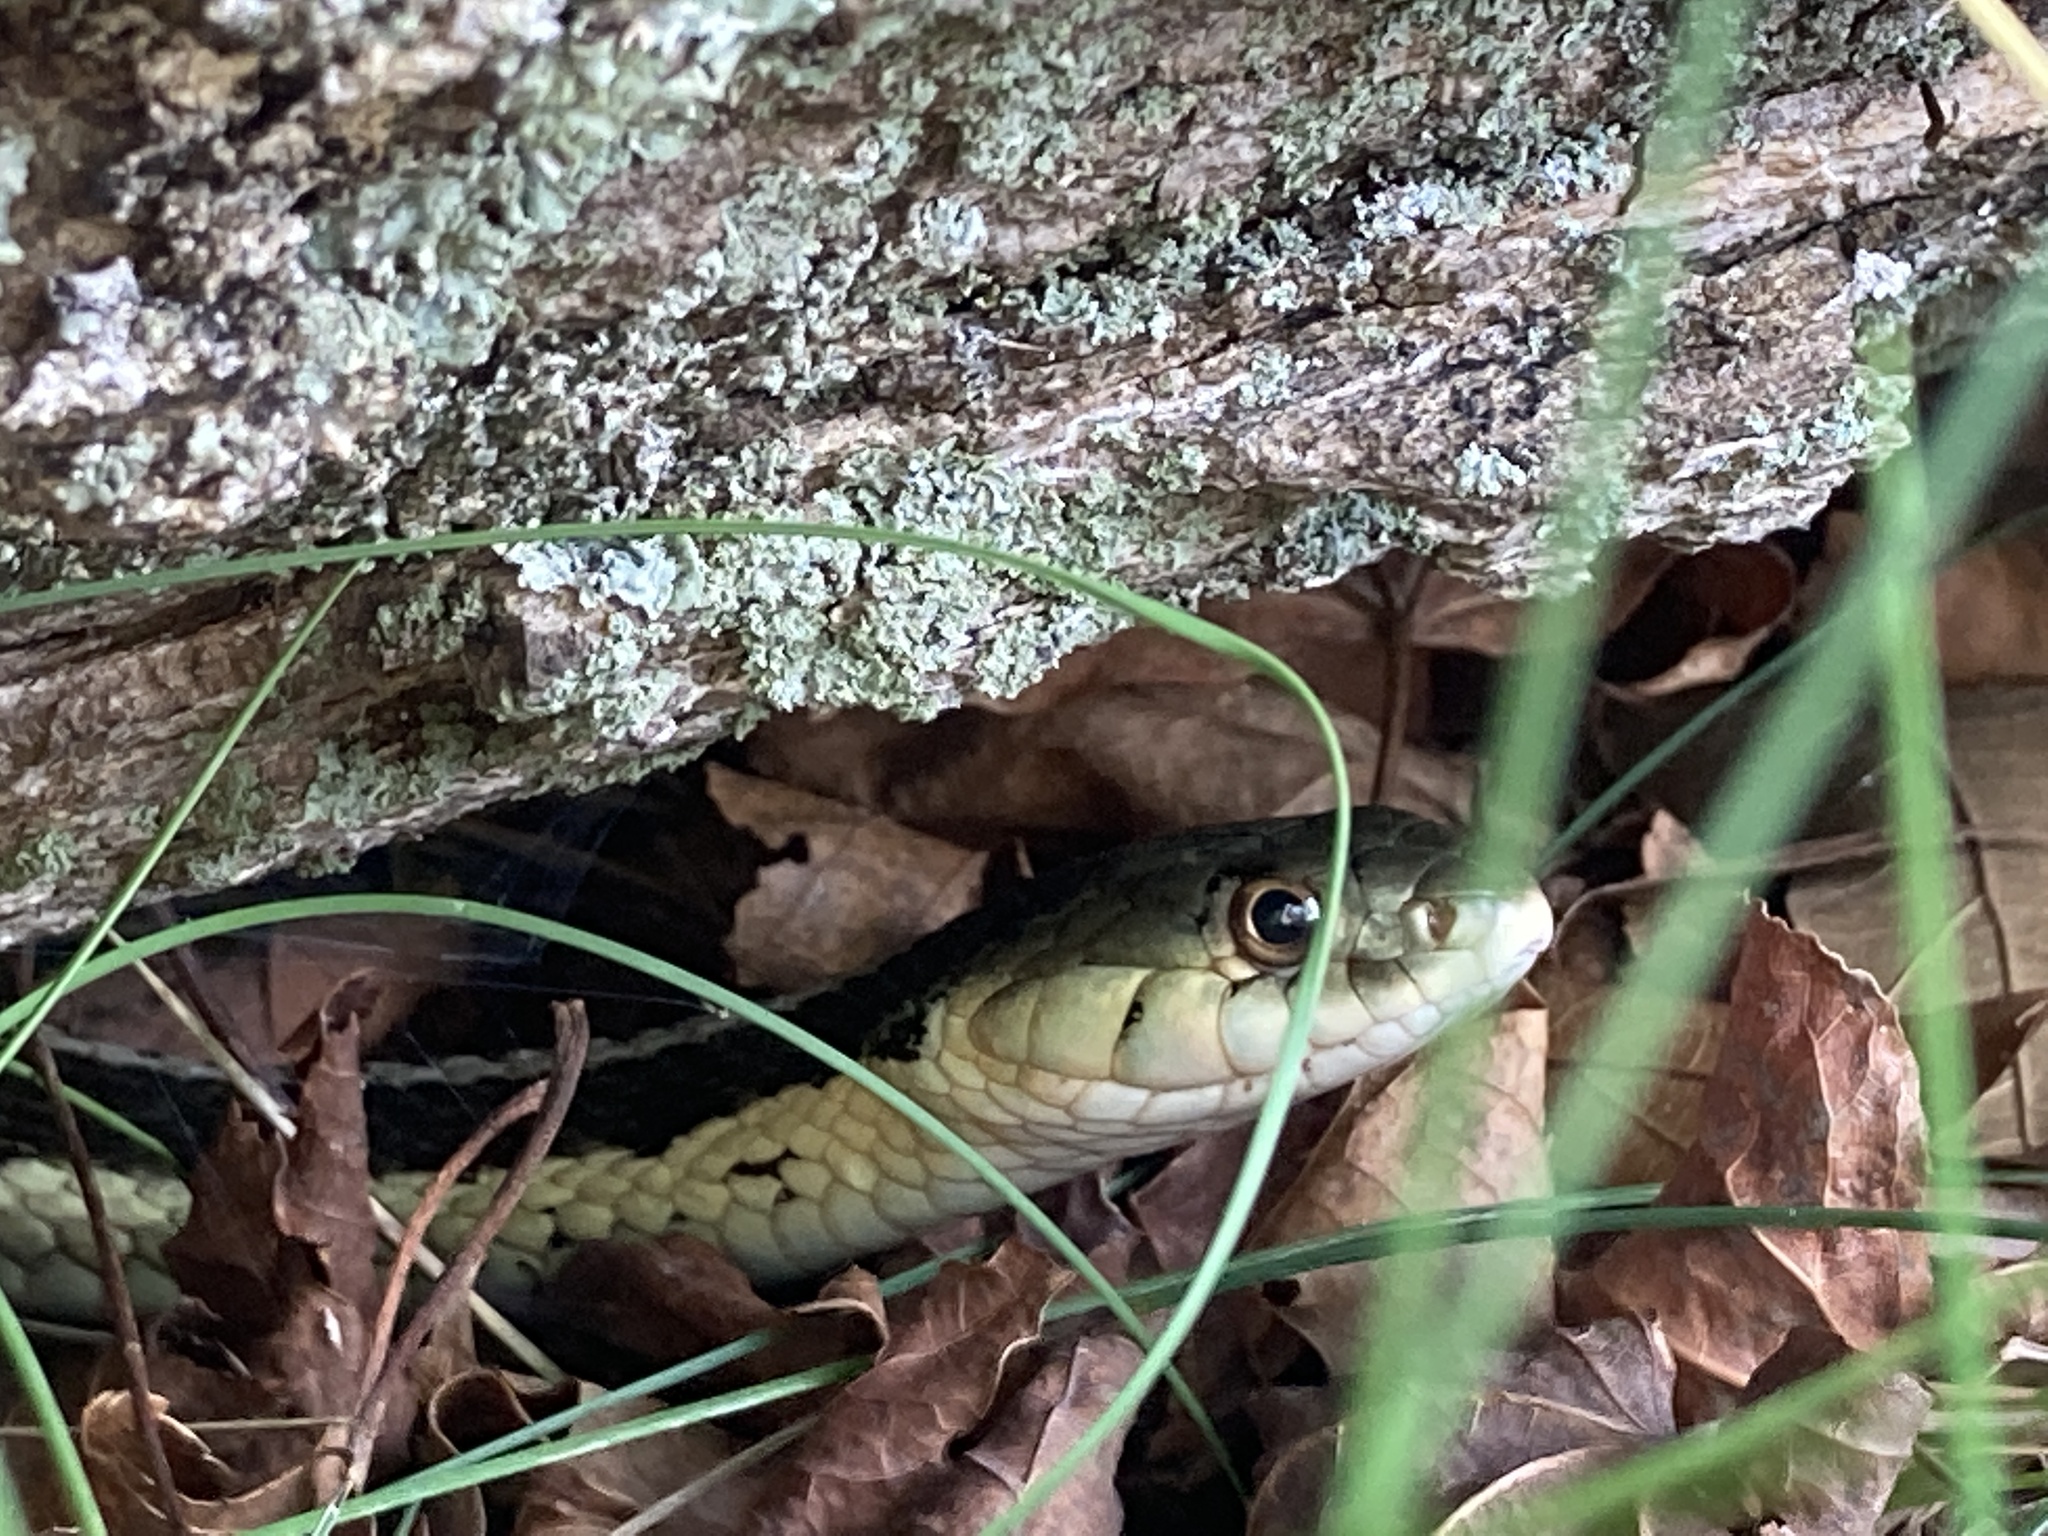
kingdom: Animalia
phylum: Chordata
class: Squamata
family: Colubridae
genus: Thamnophis
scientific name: Thamnophis sirtalis
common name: Common garter snake
